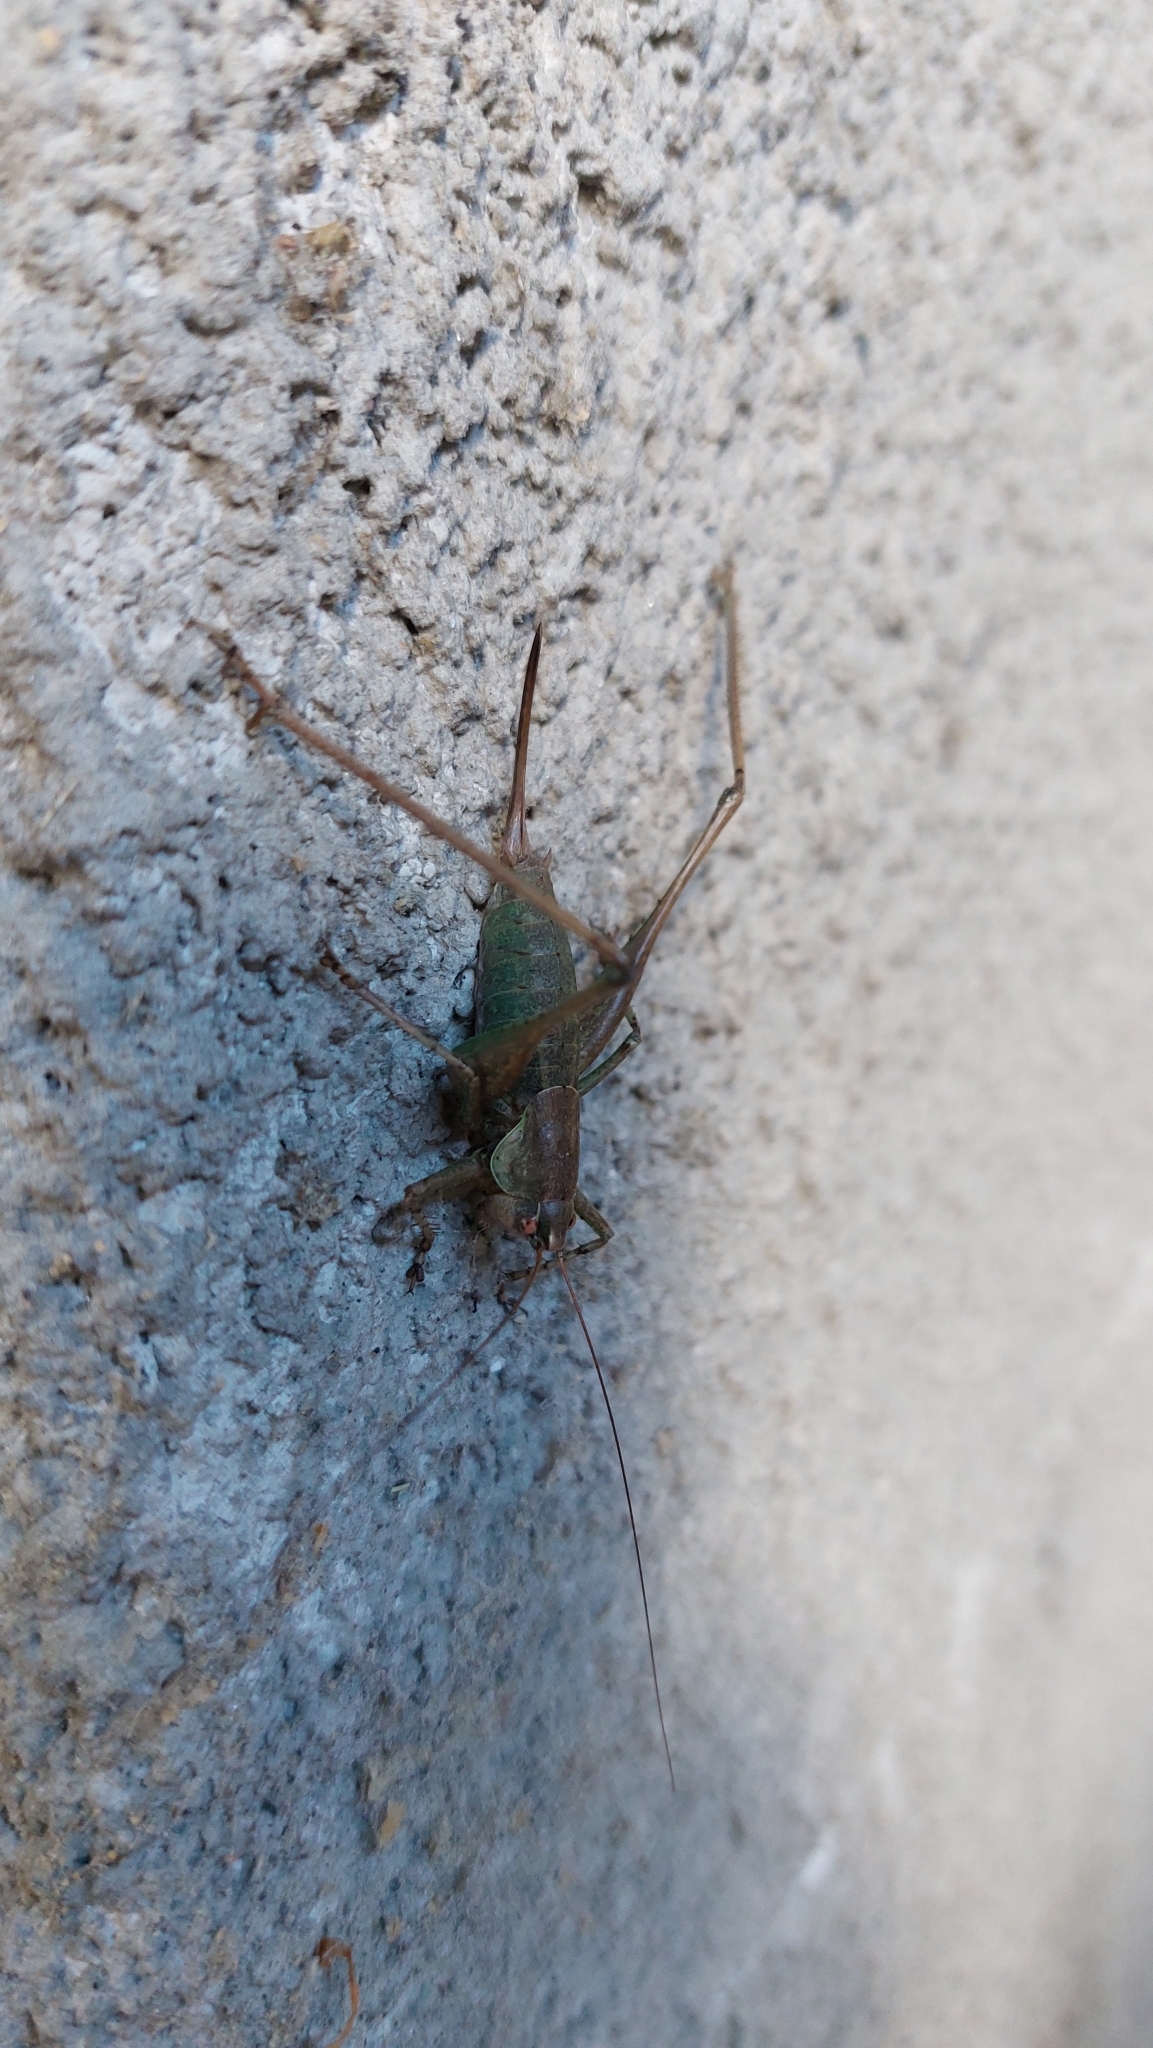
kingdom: Animalia
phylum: Arthropoda
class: Insecta
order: Orthoptera
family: Tettigoniidae
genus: Rhacocleis
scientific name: Rhacocleis annulata
